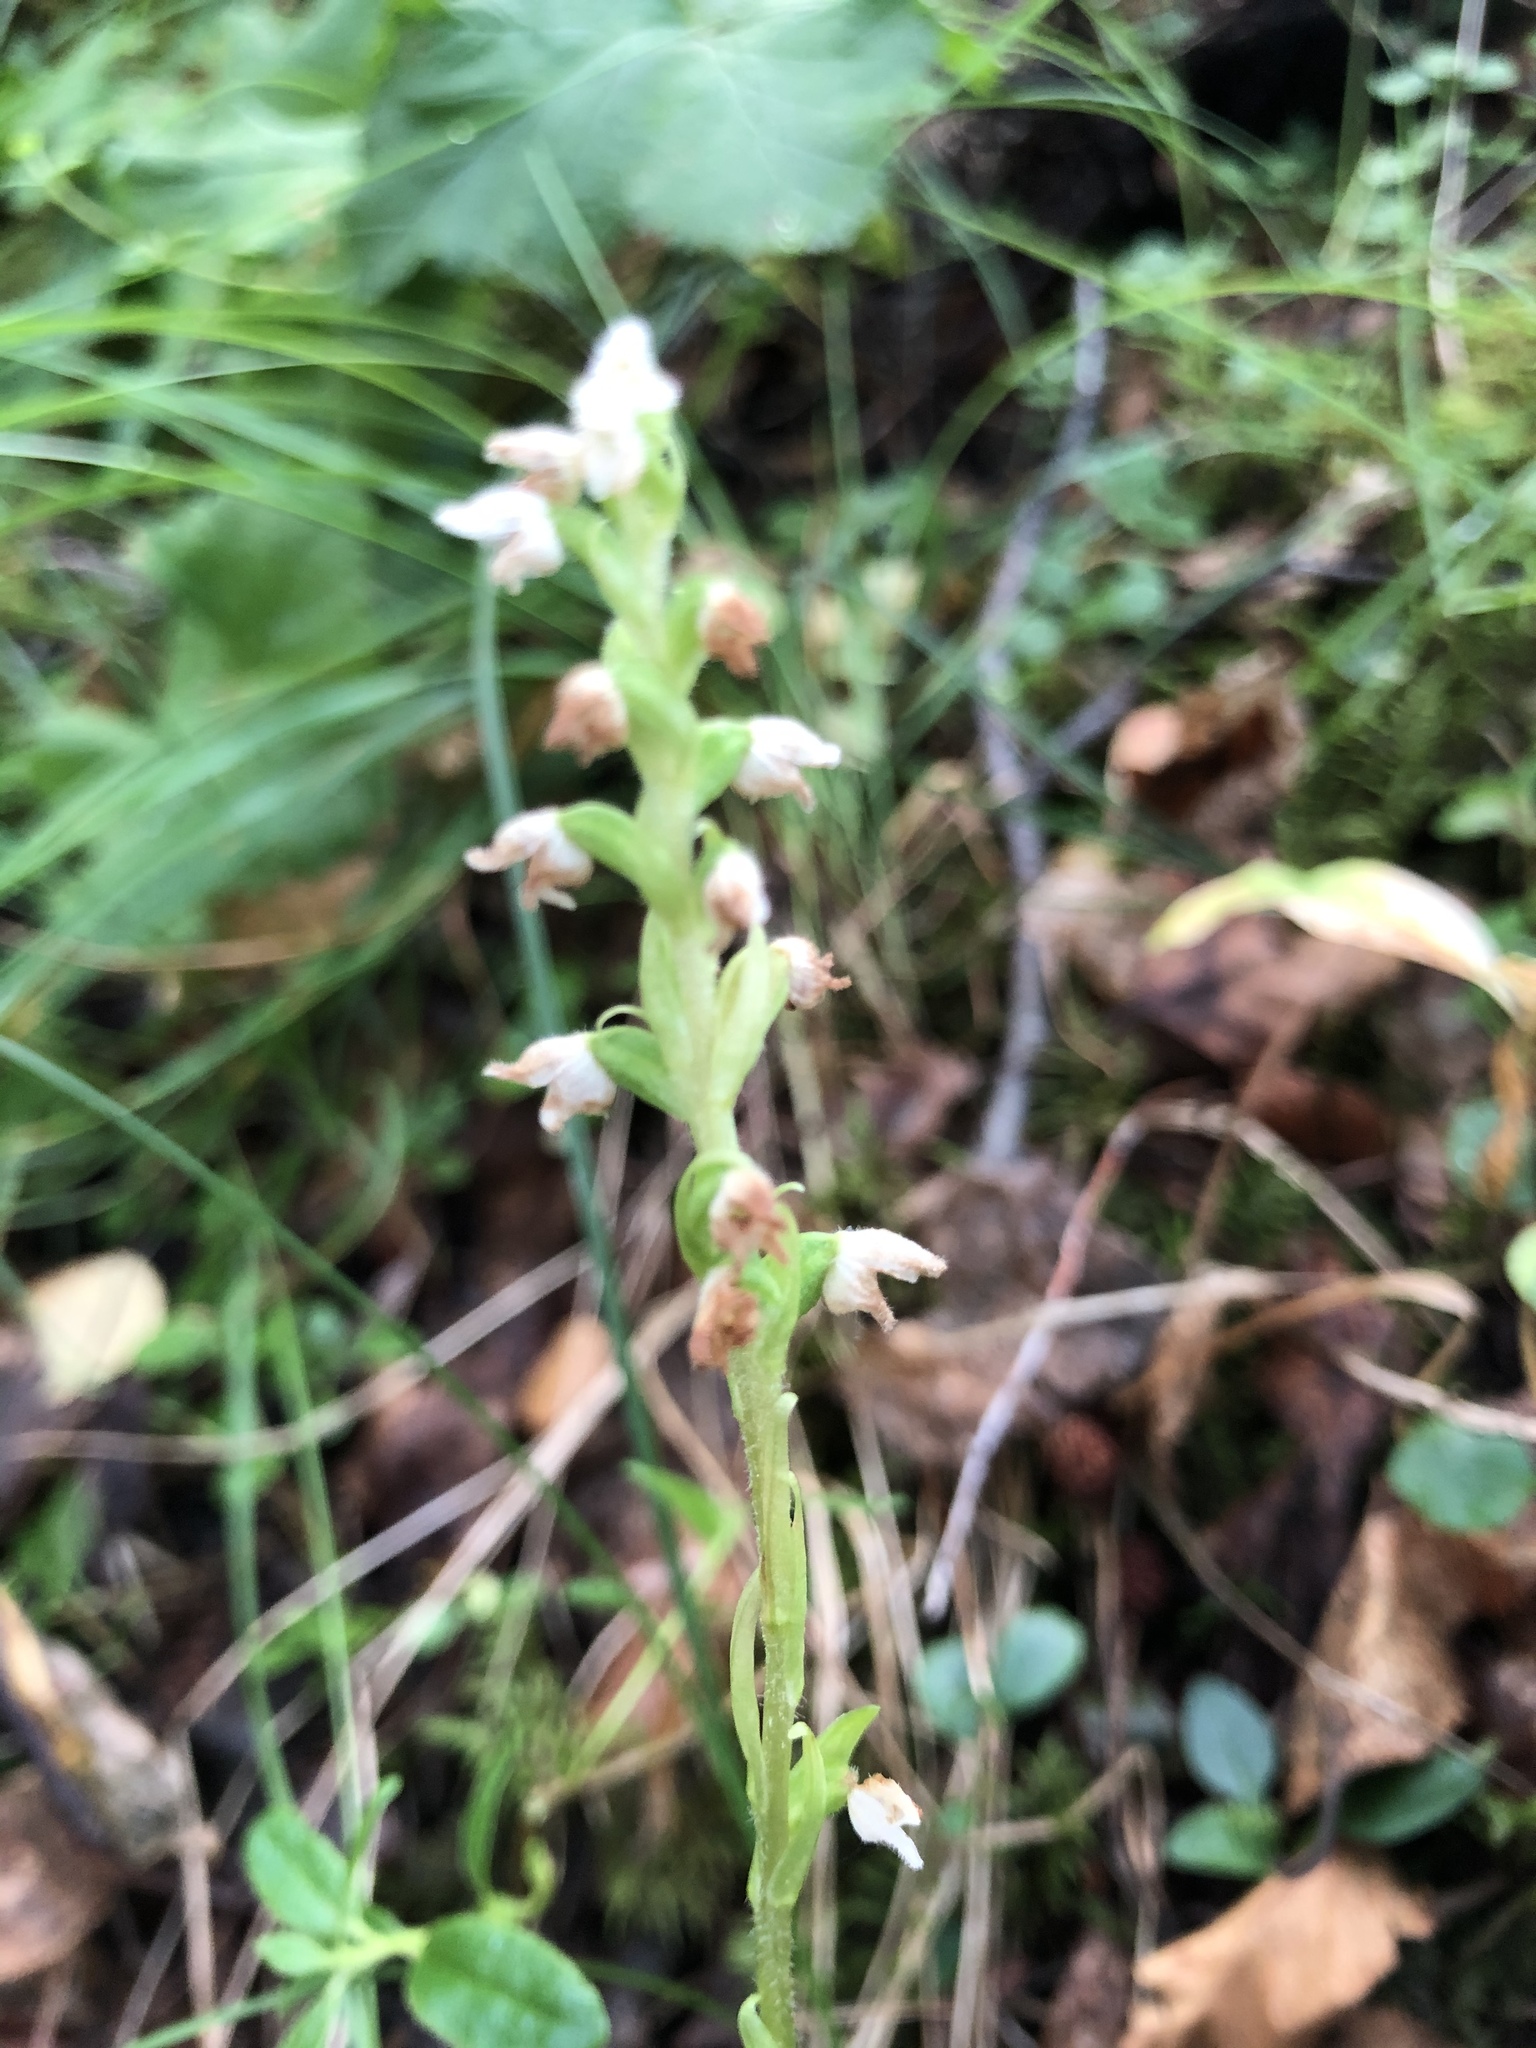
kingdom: Plantae
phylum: Tracheophyta
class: Liliopsida
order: Asparagales
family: Orchidaceae
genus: Goodyera
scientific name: Goodyera repens
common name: Creeping lady's-tresses
